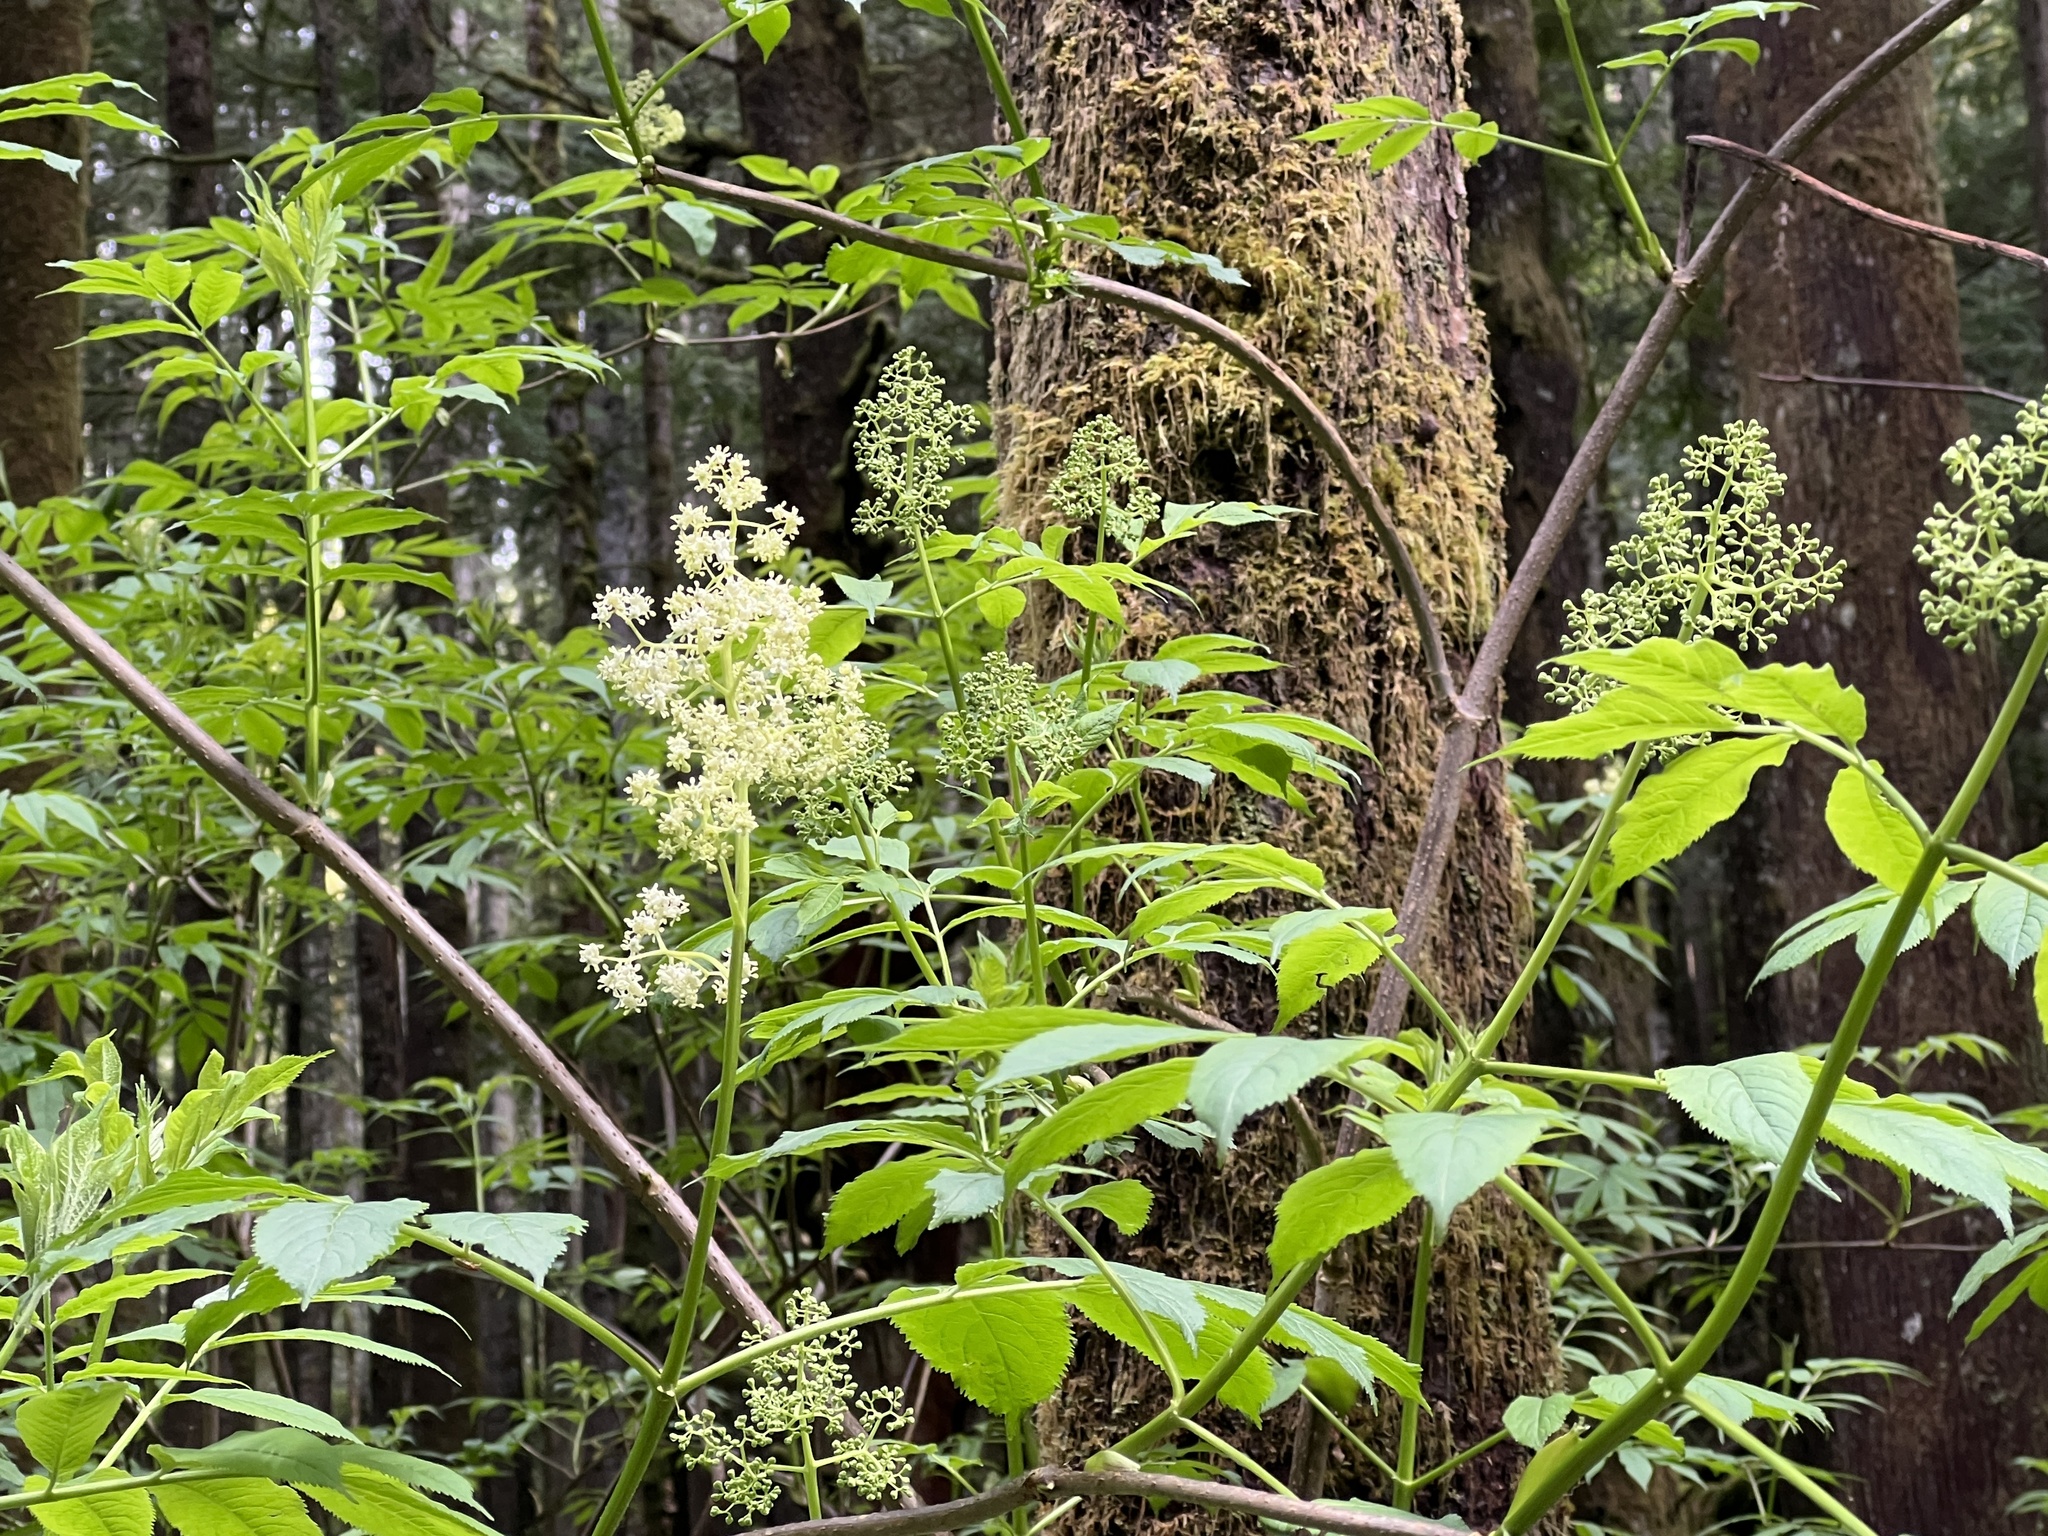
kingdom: Plantae
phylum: Tracheophyta
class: Magnoliopsida
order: Dipsacales
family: Viburnaceae
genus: Sambucus
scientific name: Sambucus racemosa
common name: Red-berried elder
